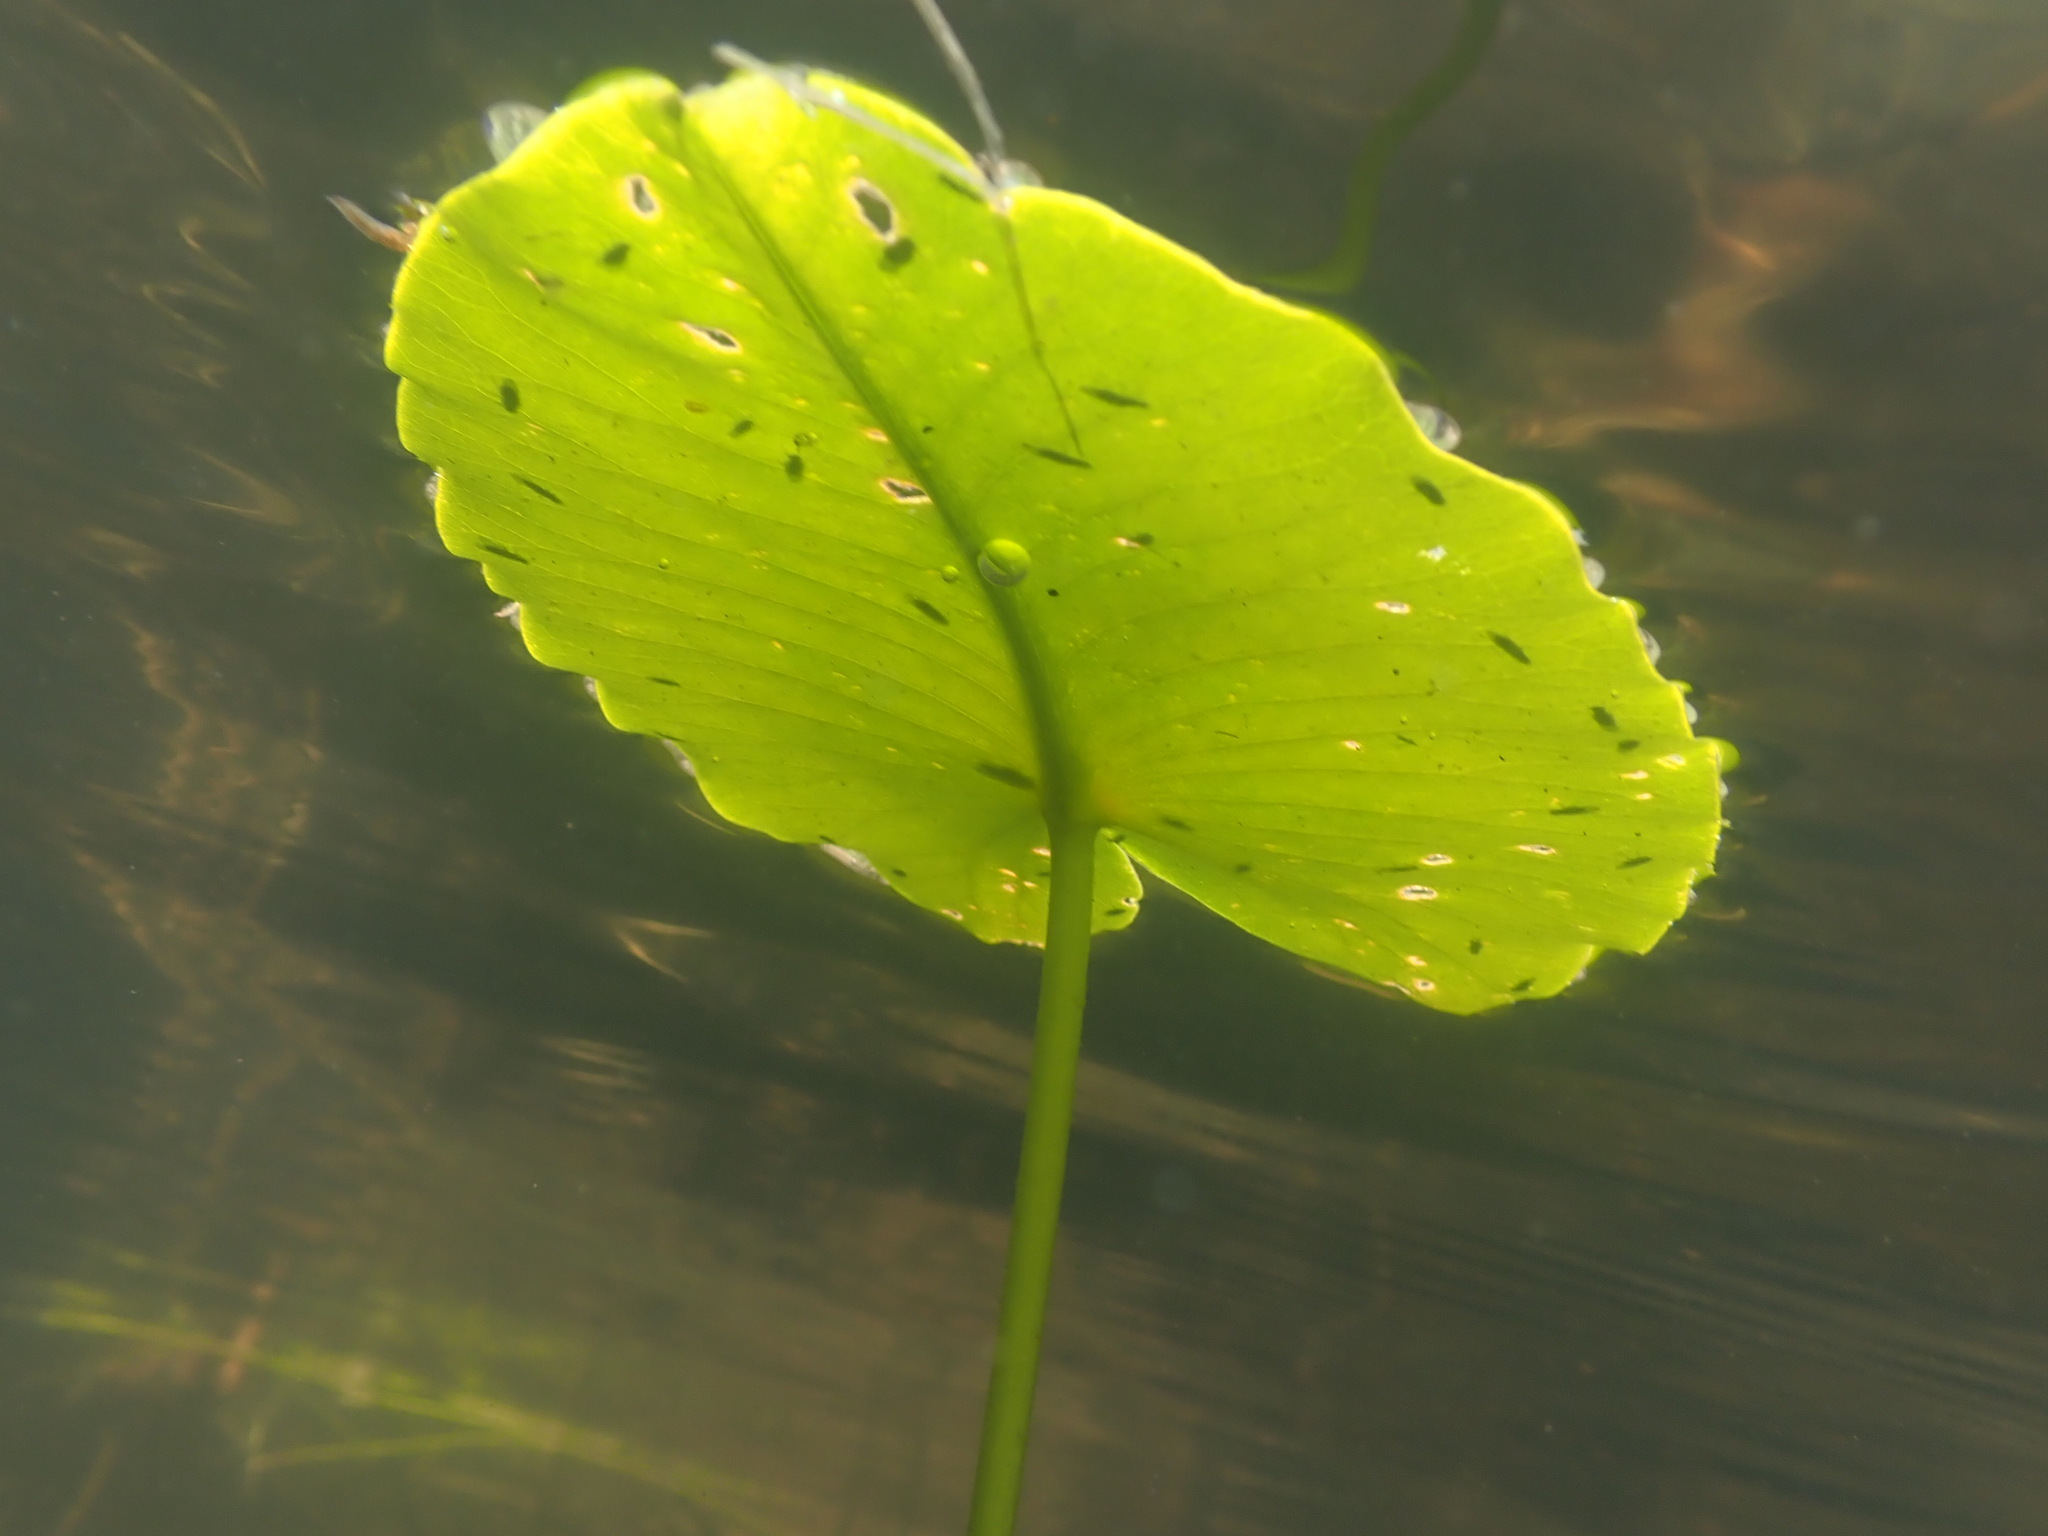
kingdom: Plantae
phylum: Tracheophyta
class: Magnoliopsida
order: Nymphaeales
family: Nymphaeaceae
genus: Nuphar
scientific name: Nuphar polysepala
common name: Rocky mountain cow-lily
